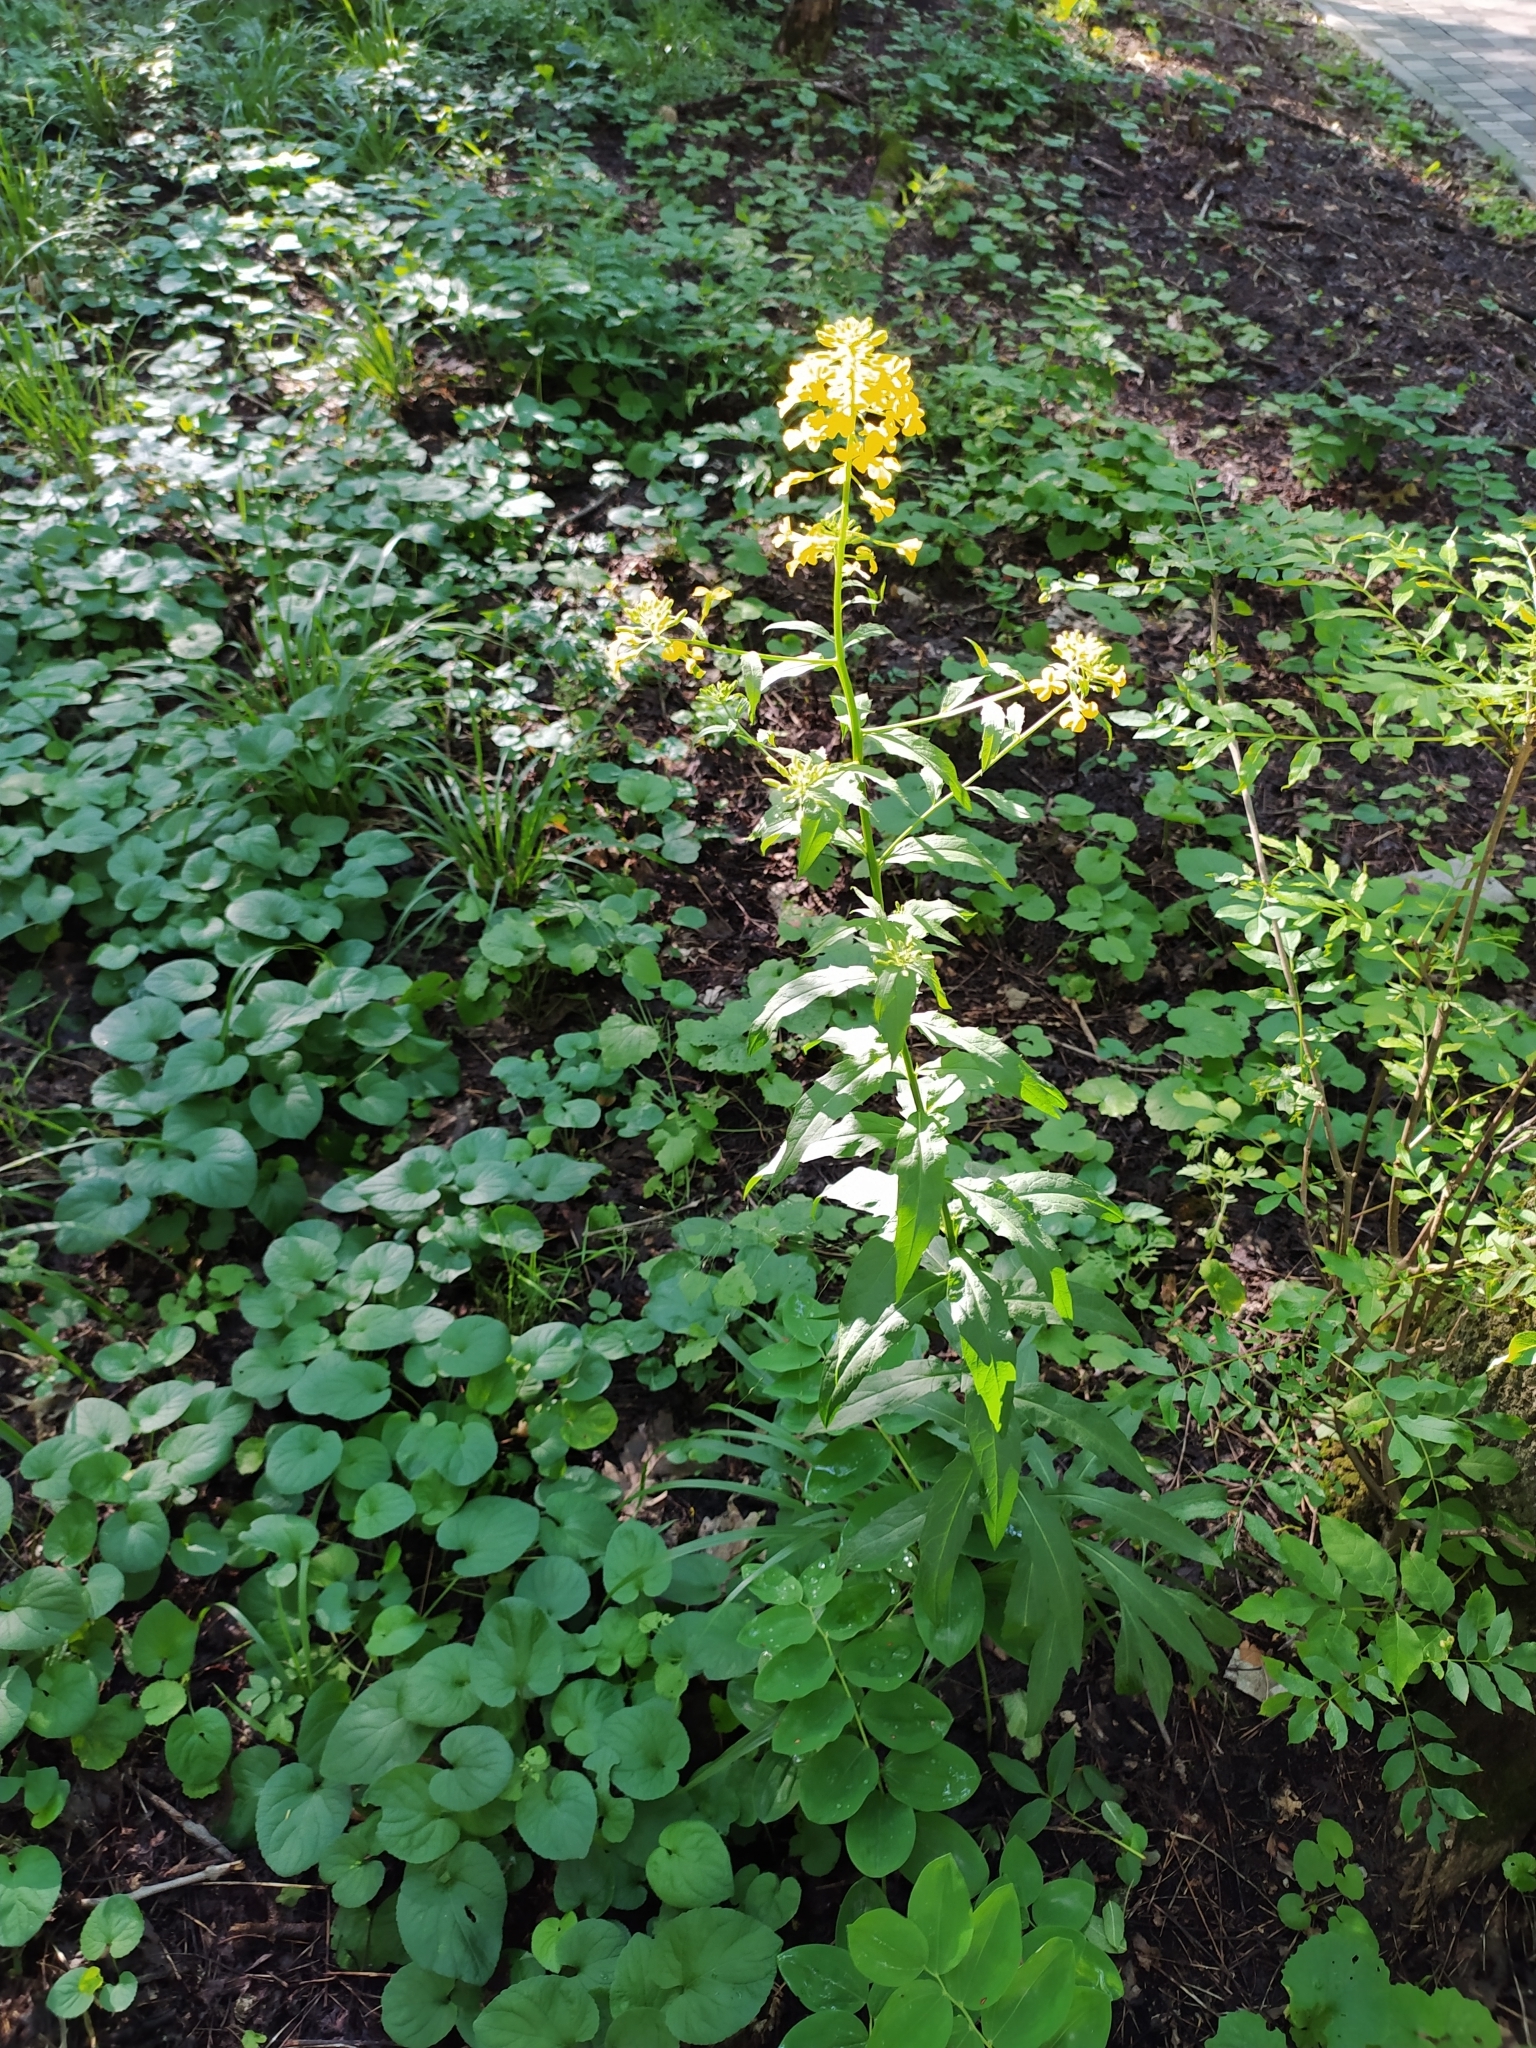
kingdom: Plantae
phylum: Tracheophyta
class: Magnoliopsida
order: Brassicales
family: Brassicaceae
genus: Erysimum
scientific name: Erysimum aureum
